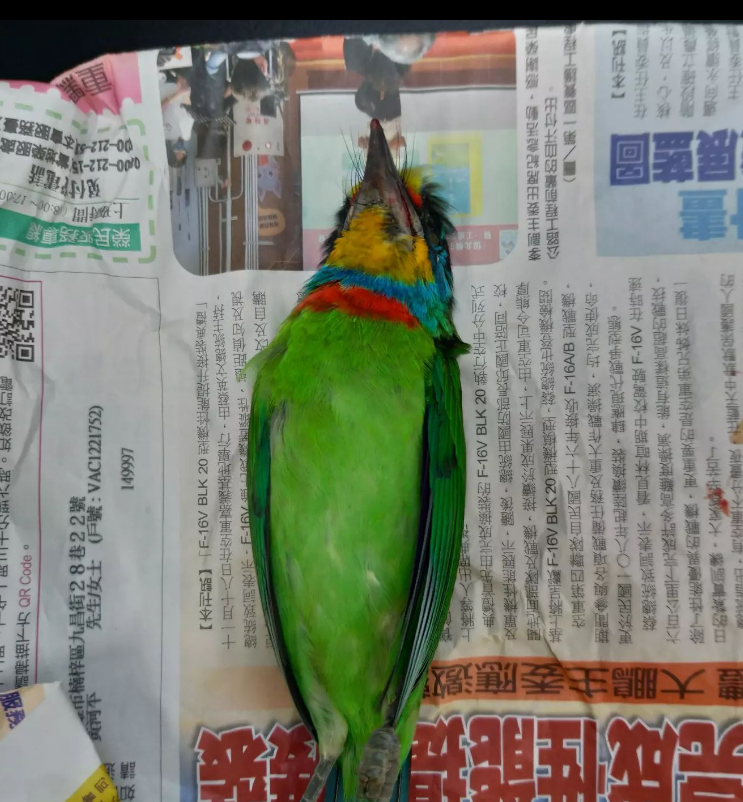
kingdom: Animalia
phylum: Chordata
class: Aves
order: Piciformes
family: Megalaimidae
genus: Psilopogon
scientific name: Psilopogon nuchalis
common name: Taiwan barbet
